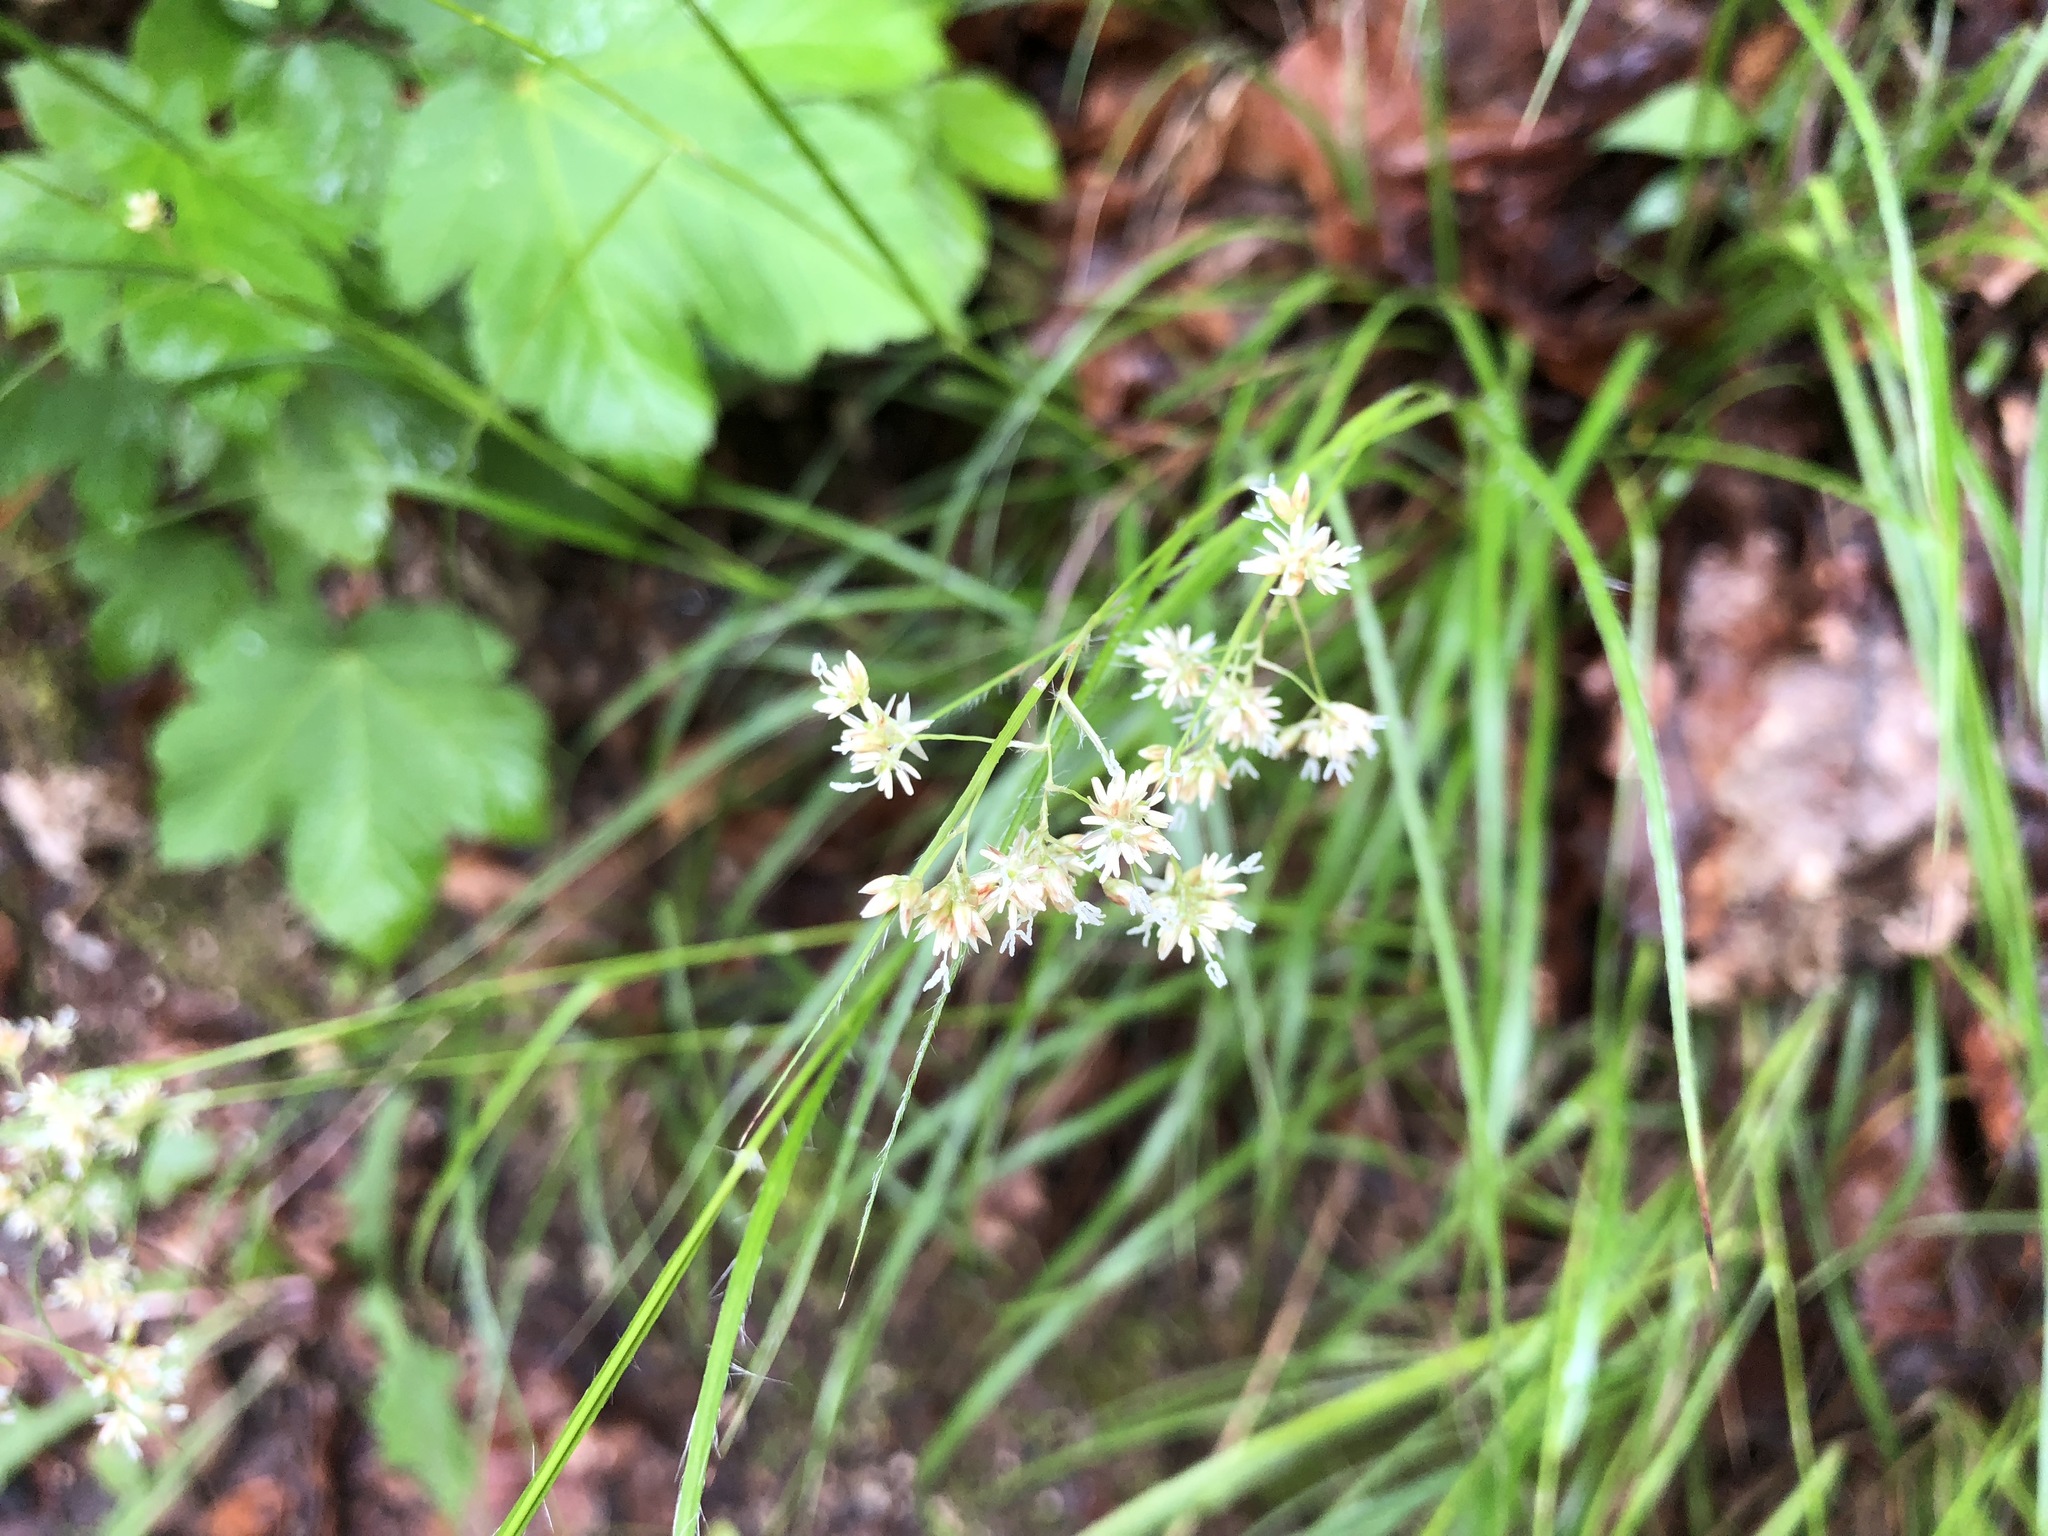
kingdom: Plantae
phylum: Tracheophyta
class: Liliopsida
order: Poales
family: Juncaceae
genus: Luzula
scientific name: Luzula luzuloides
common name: White wood-rush
